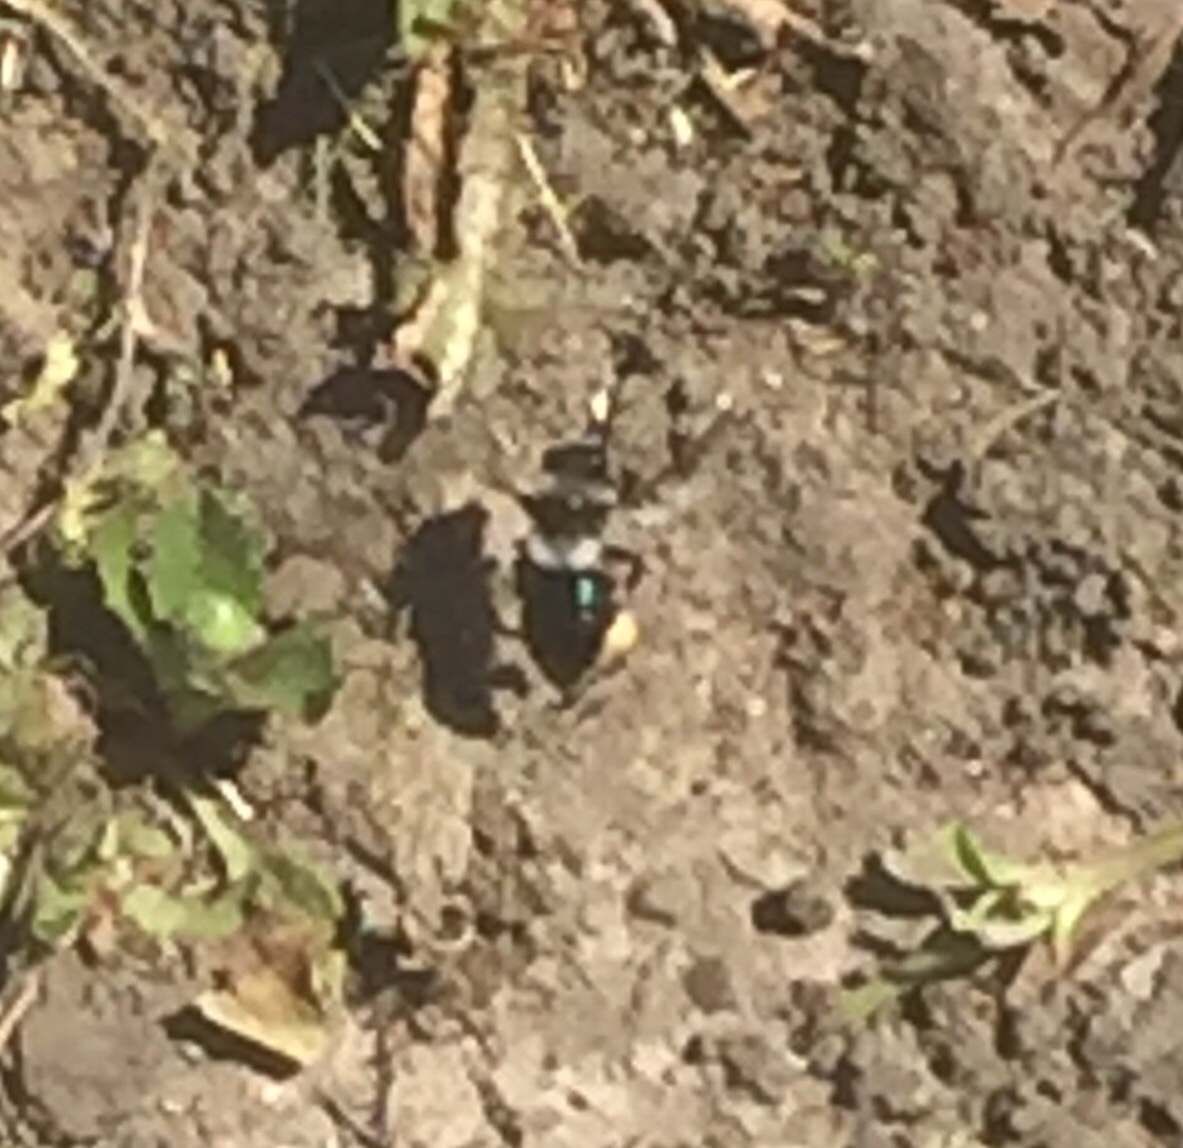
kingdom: Animalia
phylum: Arthropoda
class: Insecta
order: Hymenoptera
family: Andrenidae
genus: Andrena
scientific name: Andrena cineraria
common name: Ashy mining bee
